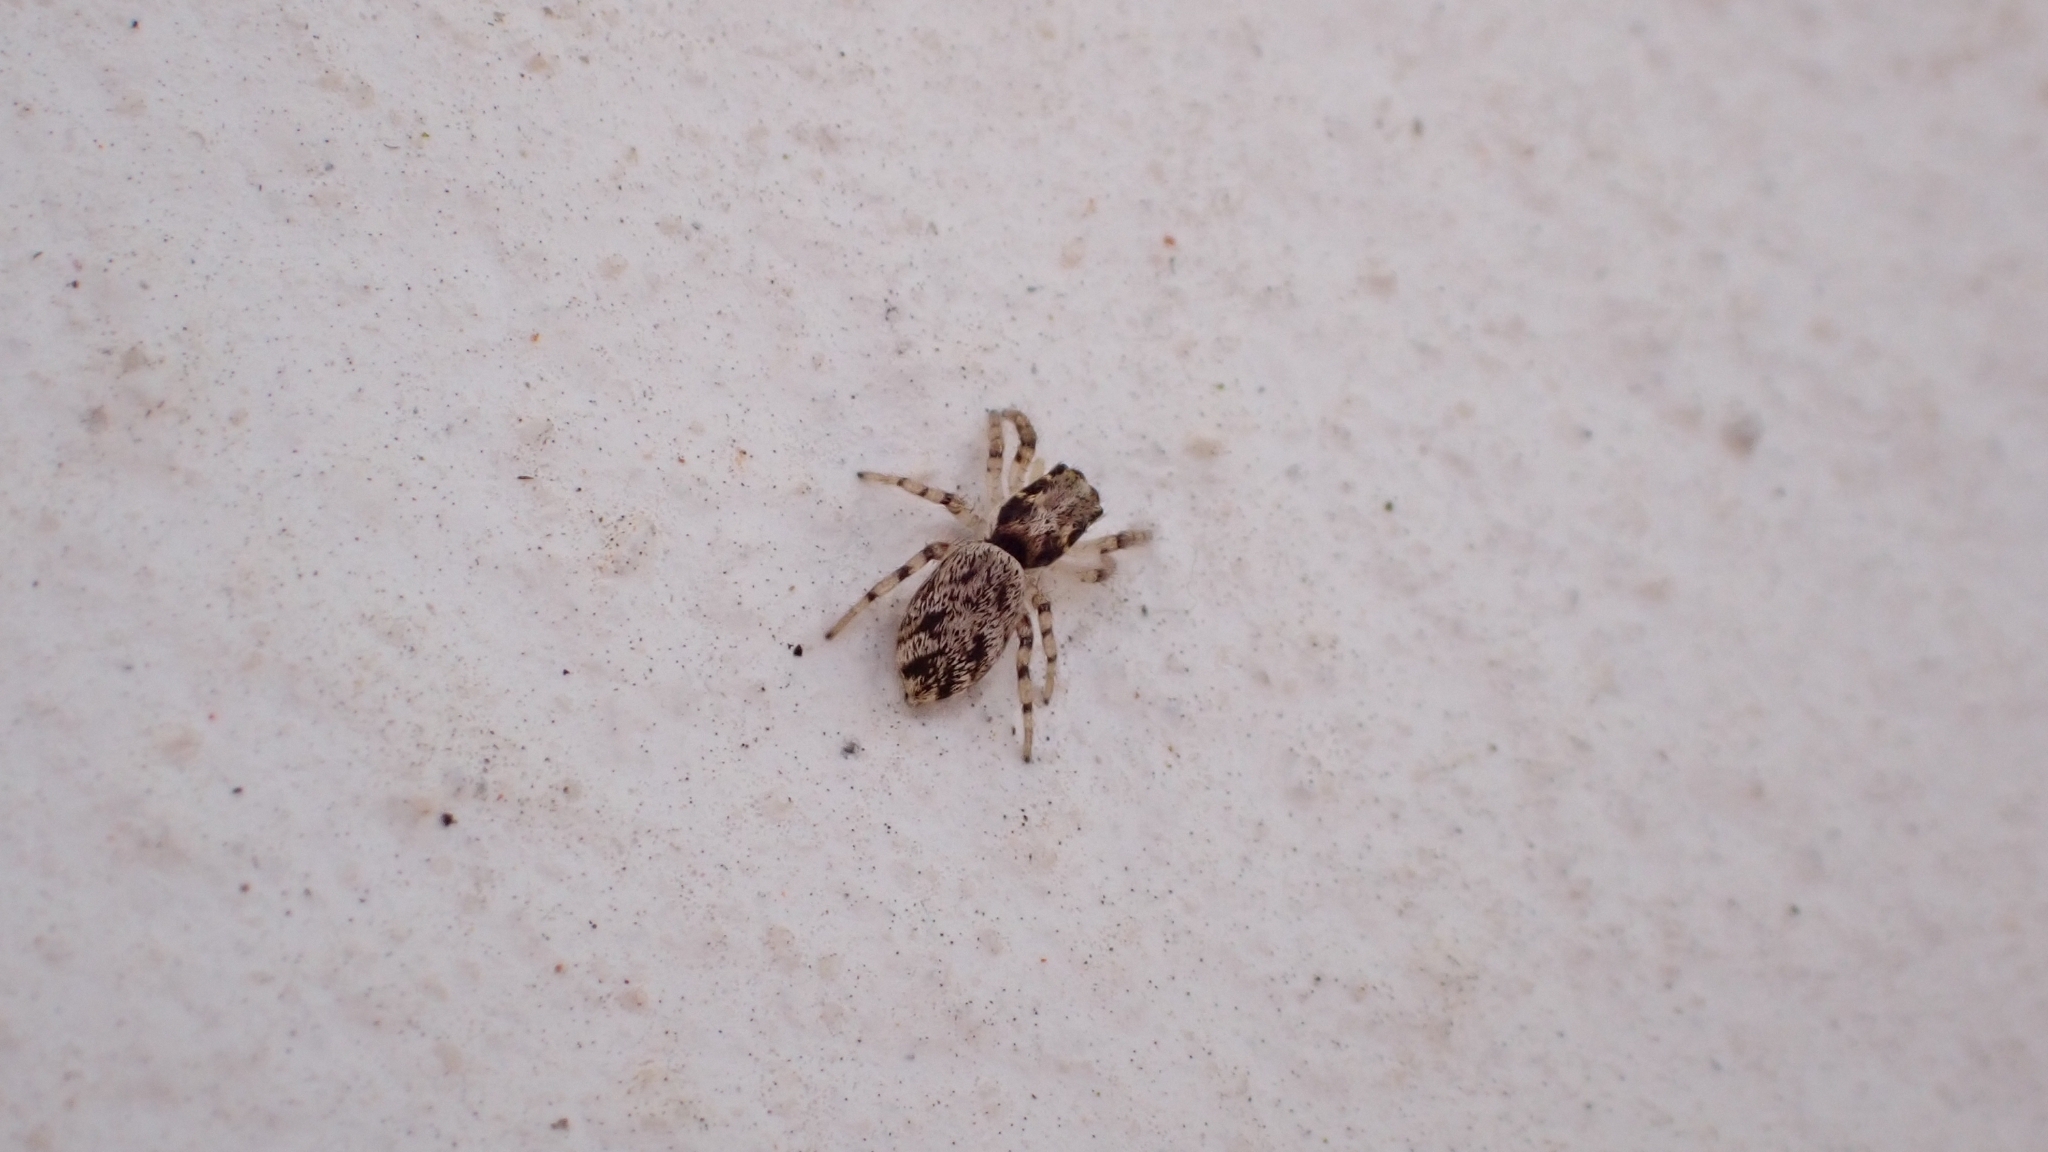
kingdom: Animalia
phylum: Arthropoda
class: Arachnida
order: Araneae
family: Salticidae
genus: Salticus
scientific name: Salticus mutabilis
